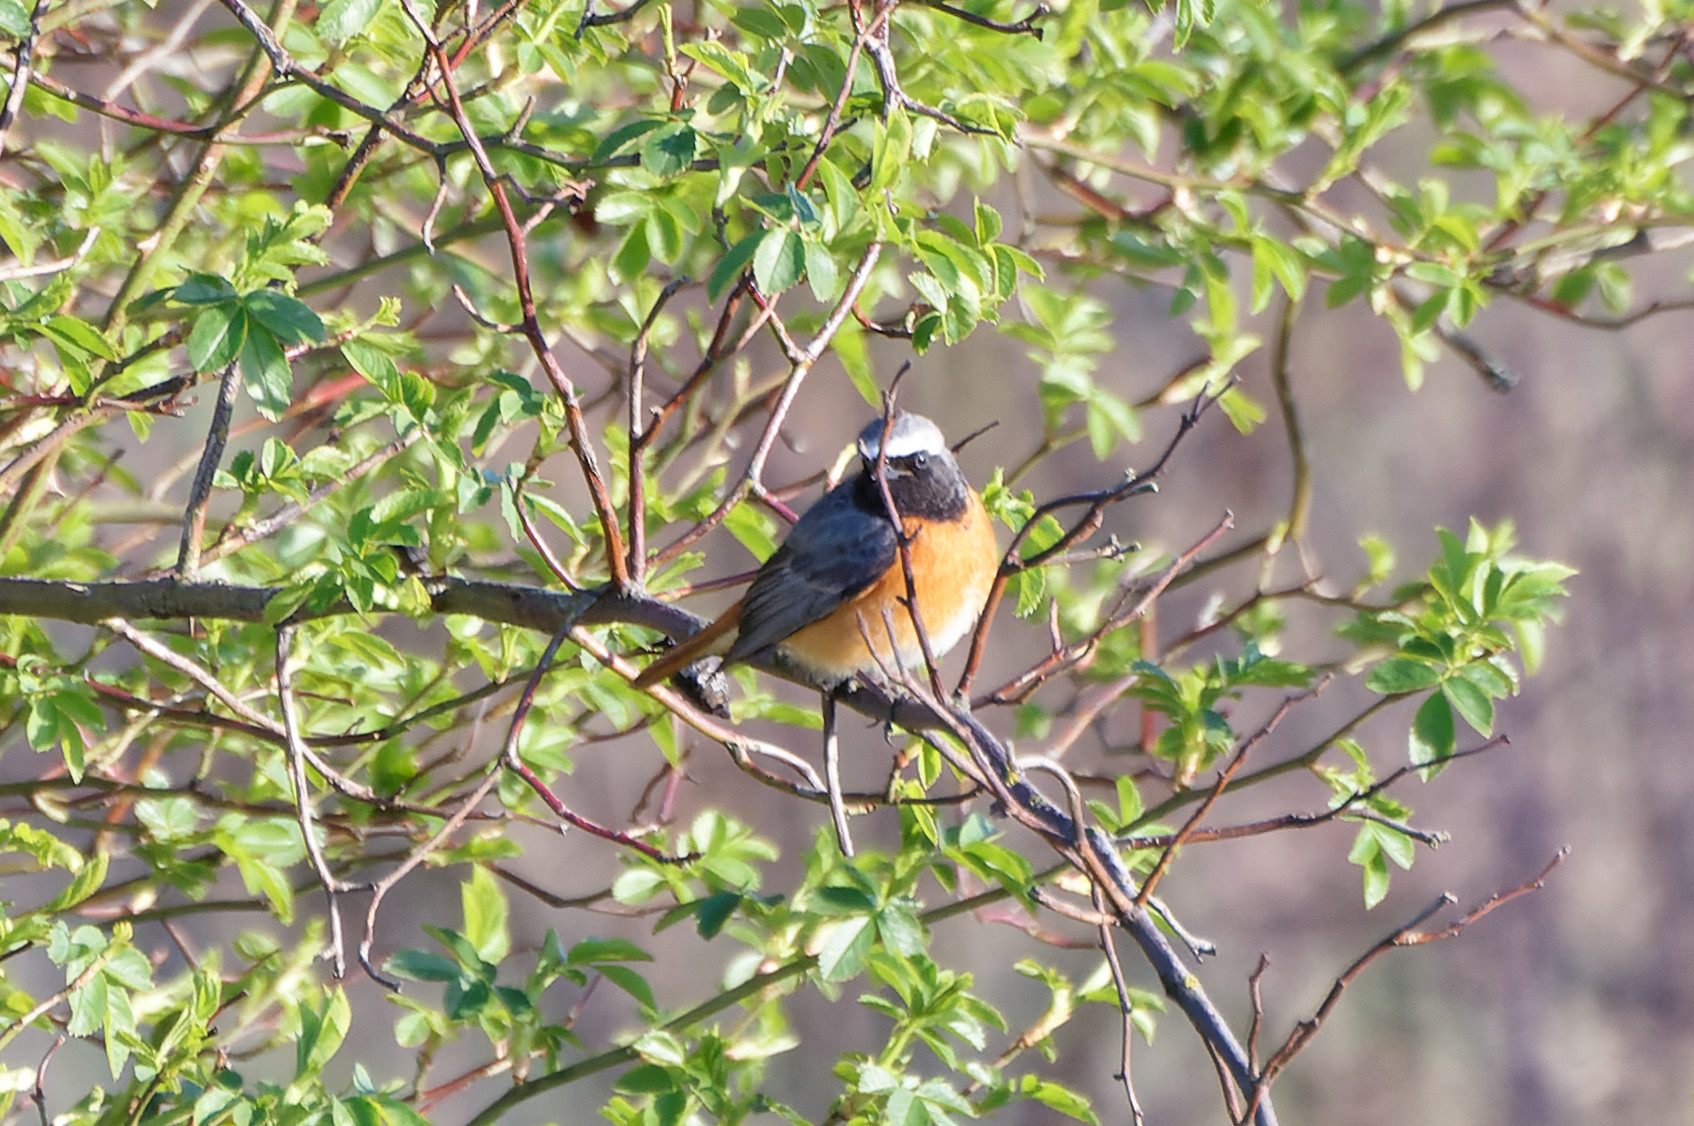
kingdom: Animalia
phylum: Chordata
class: Aves
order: Passeriformes
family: Muscicapidae
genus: Phoenicurus
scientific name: Phoenicurus phoenicurus
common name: Common redstart
